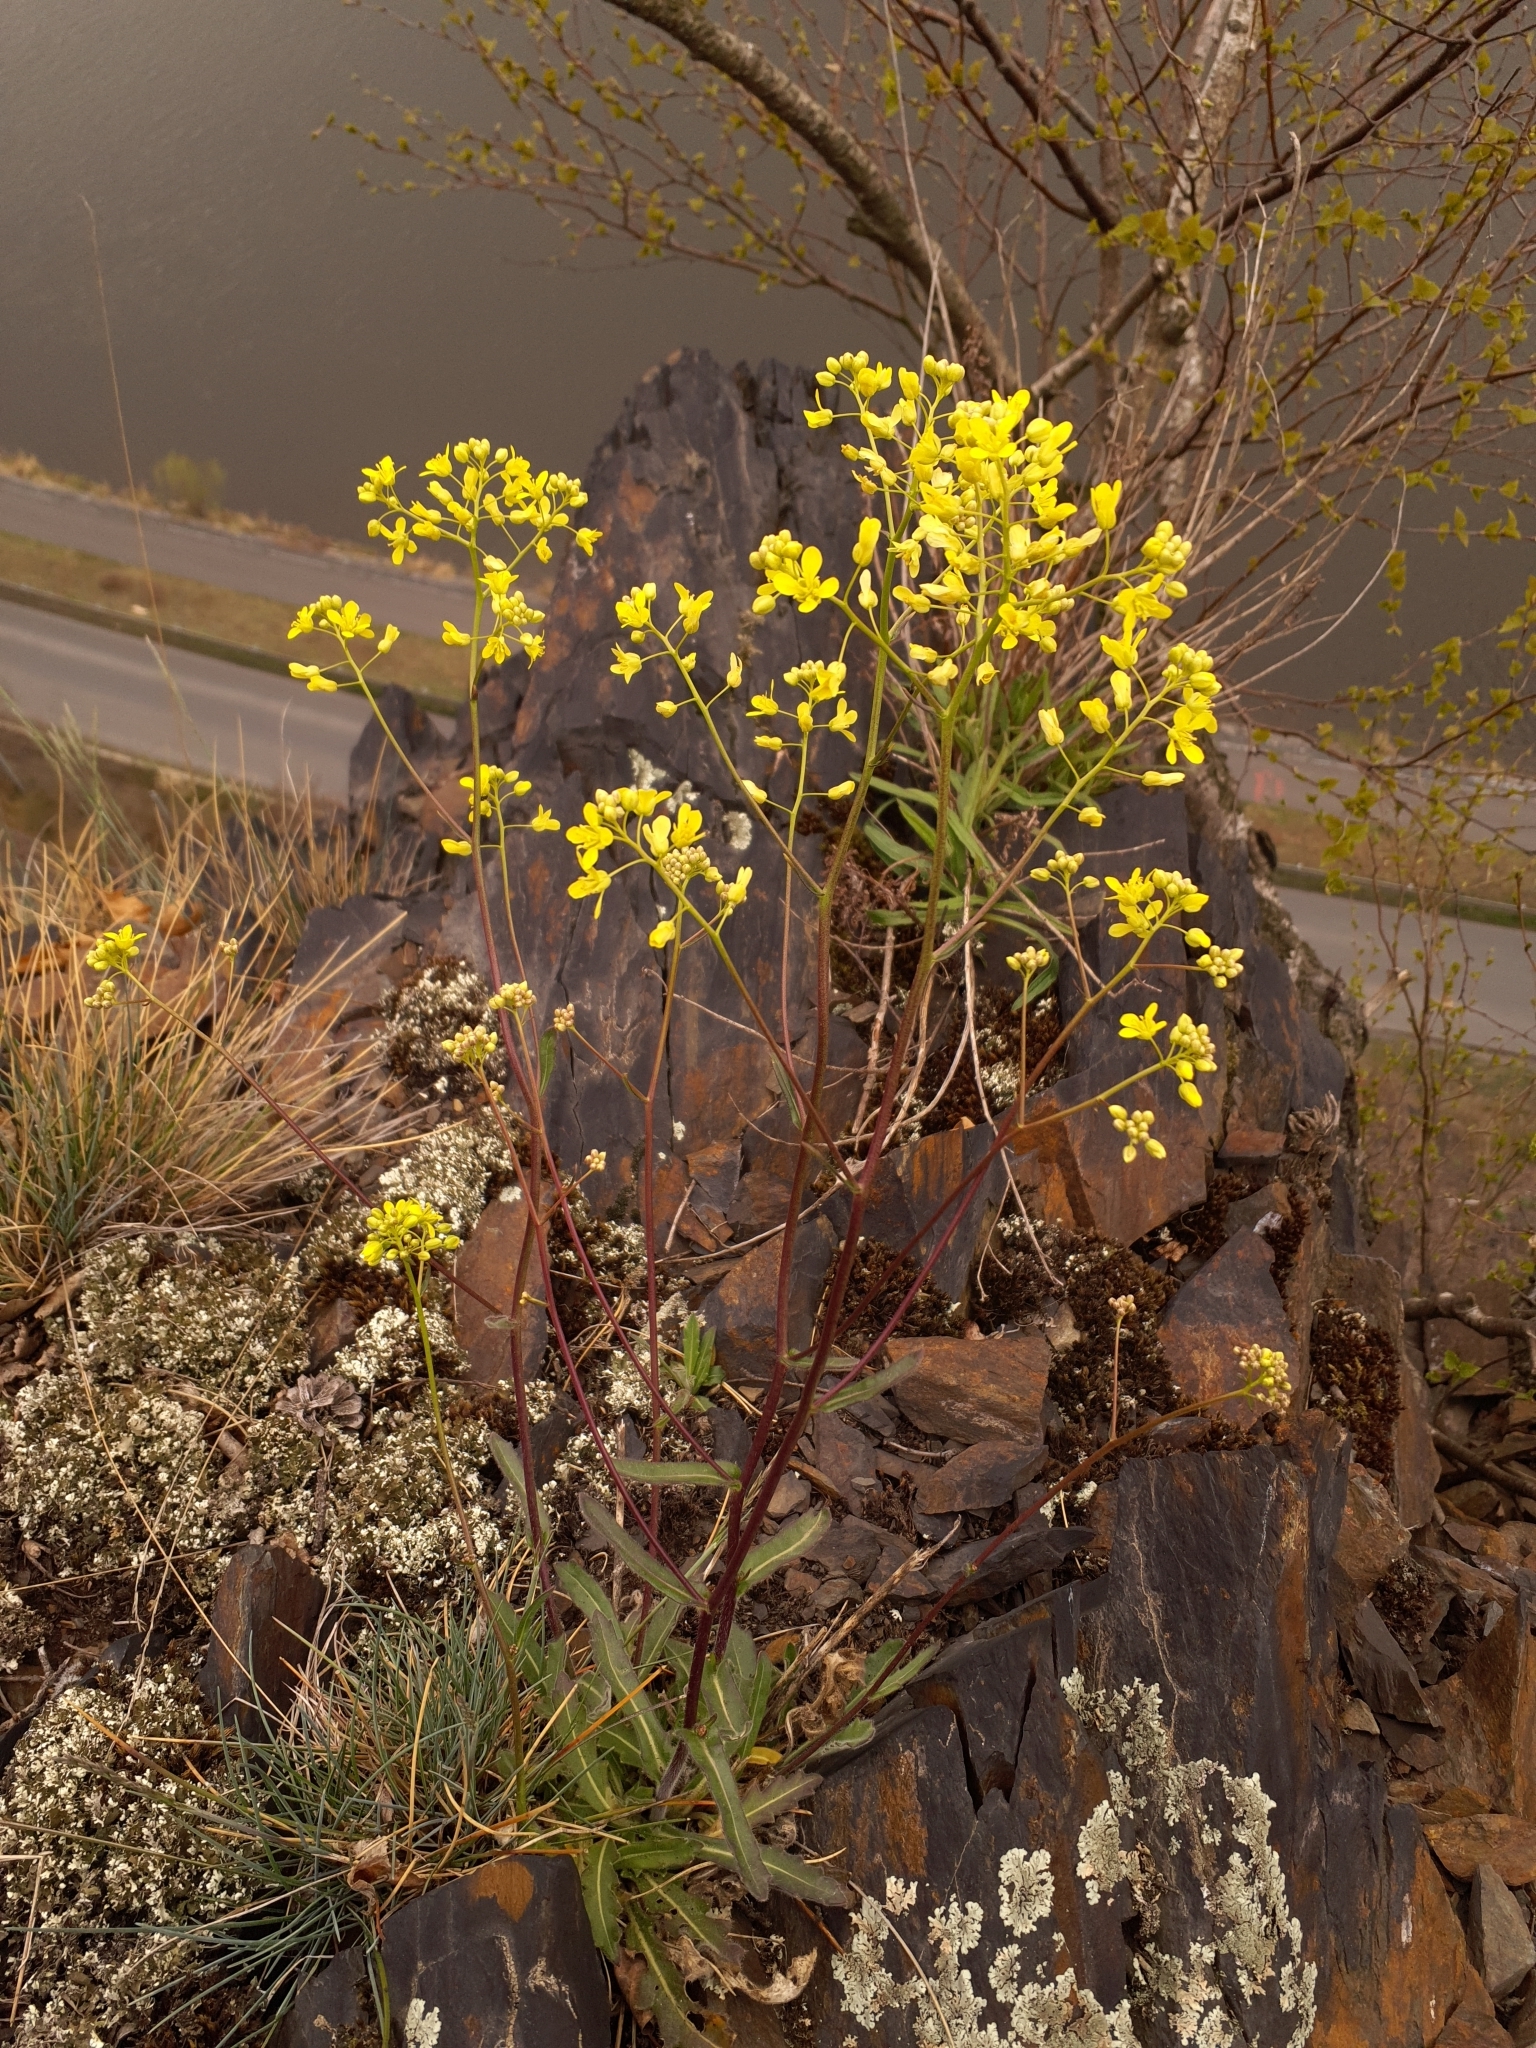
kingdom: Plantae
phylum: Tracheophyta
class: Magnoliopsida
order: Brassicales
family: Brassicaceae
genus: Biscutella
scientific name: Biscutella laevigata
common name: Buckler mustard
